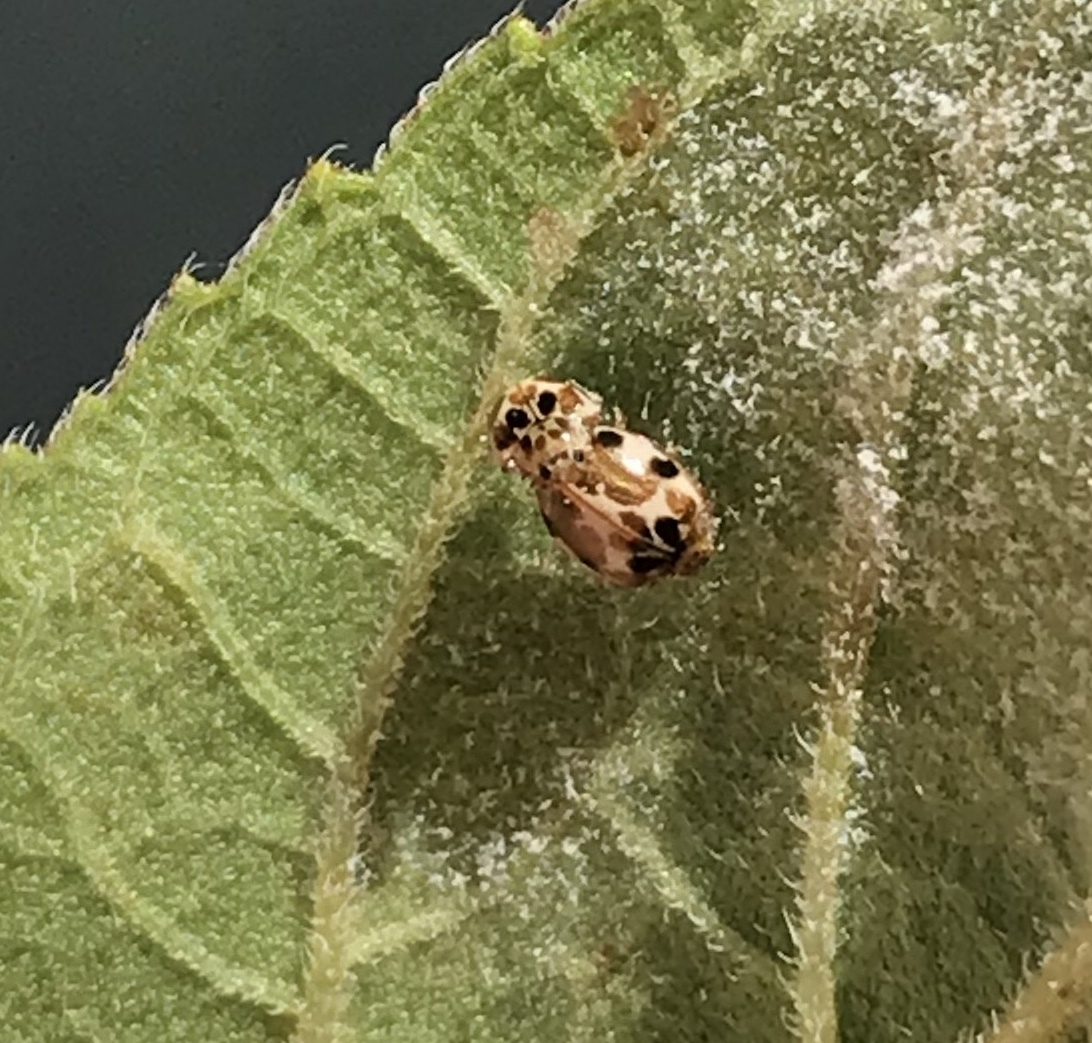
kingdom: Animalia
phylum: Arthropoda
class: Insecta
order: Coleoptera
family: Coccinellidae
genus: Psyllobora
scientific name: Psyllobora vigintimaculata
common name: Ladybird beetle
